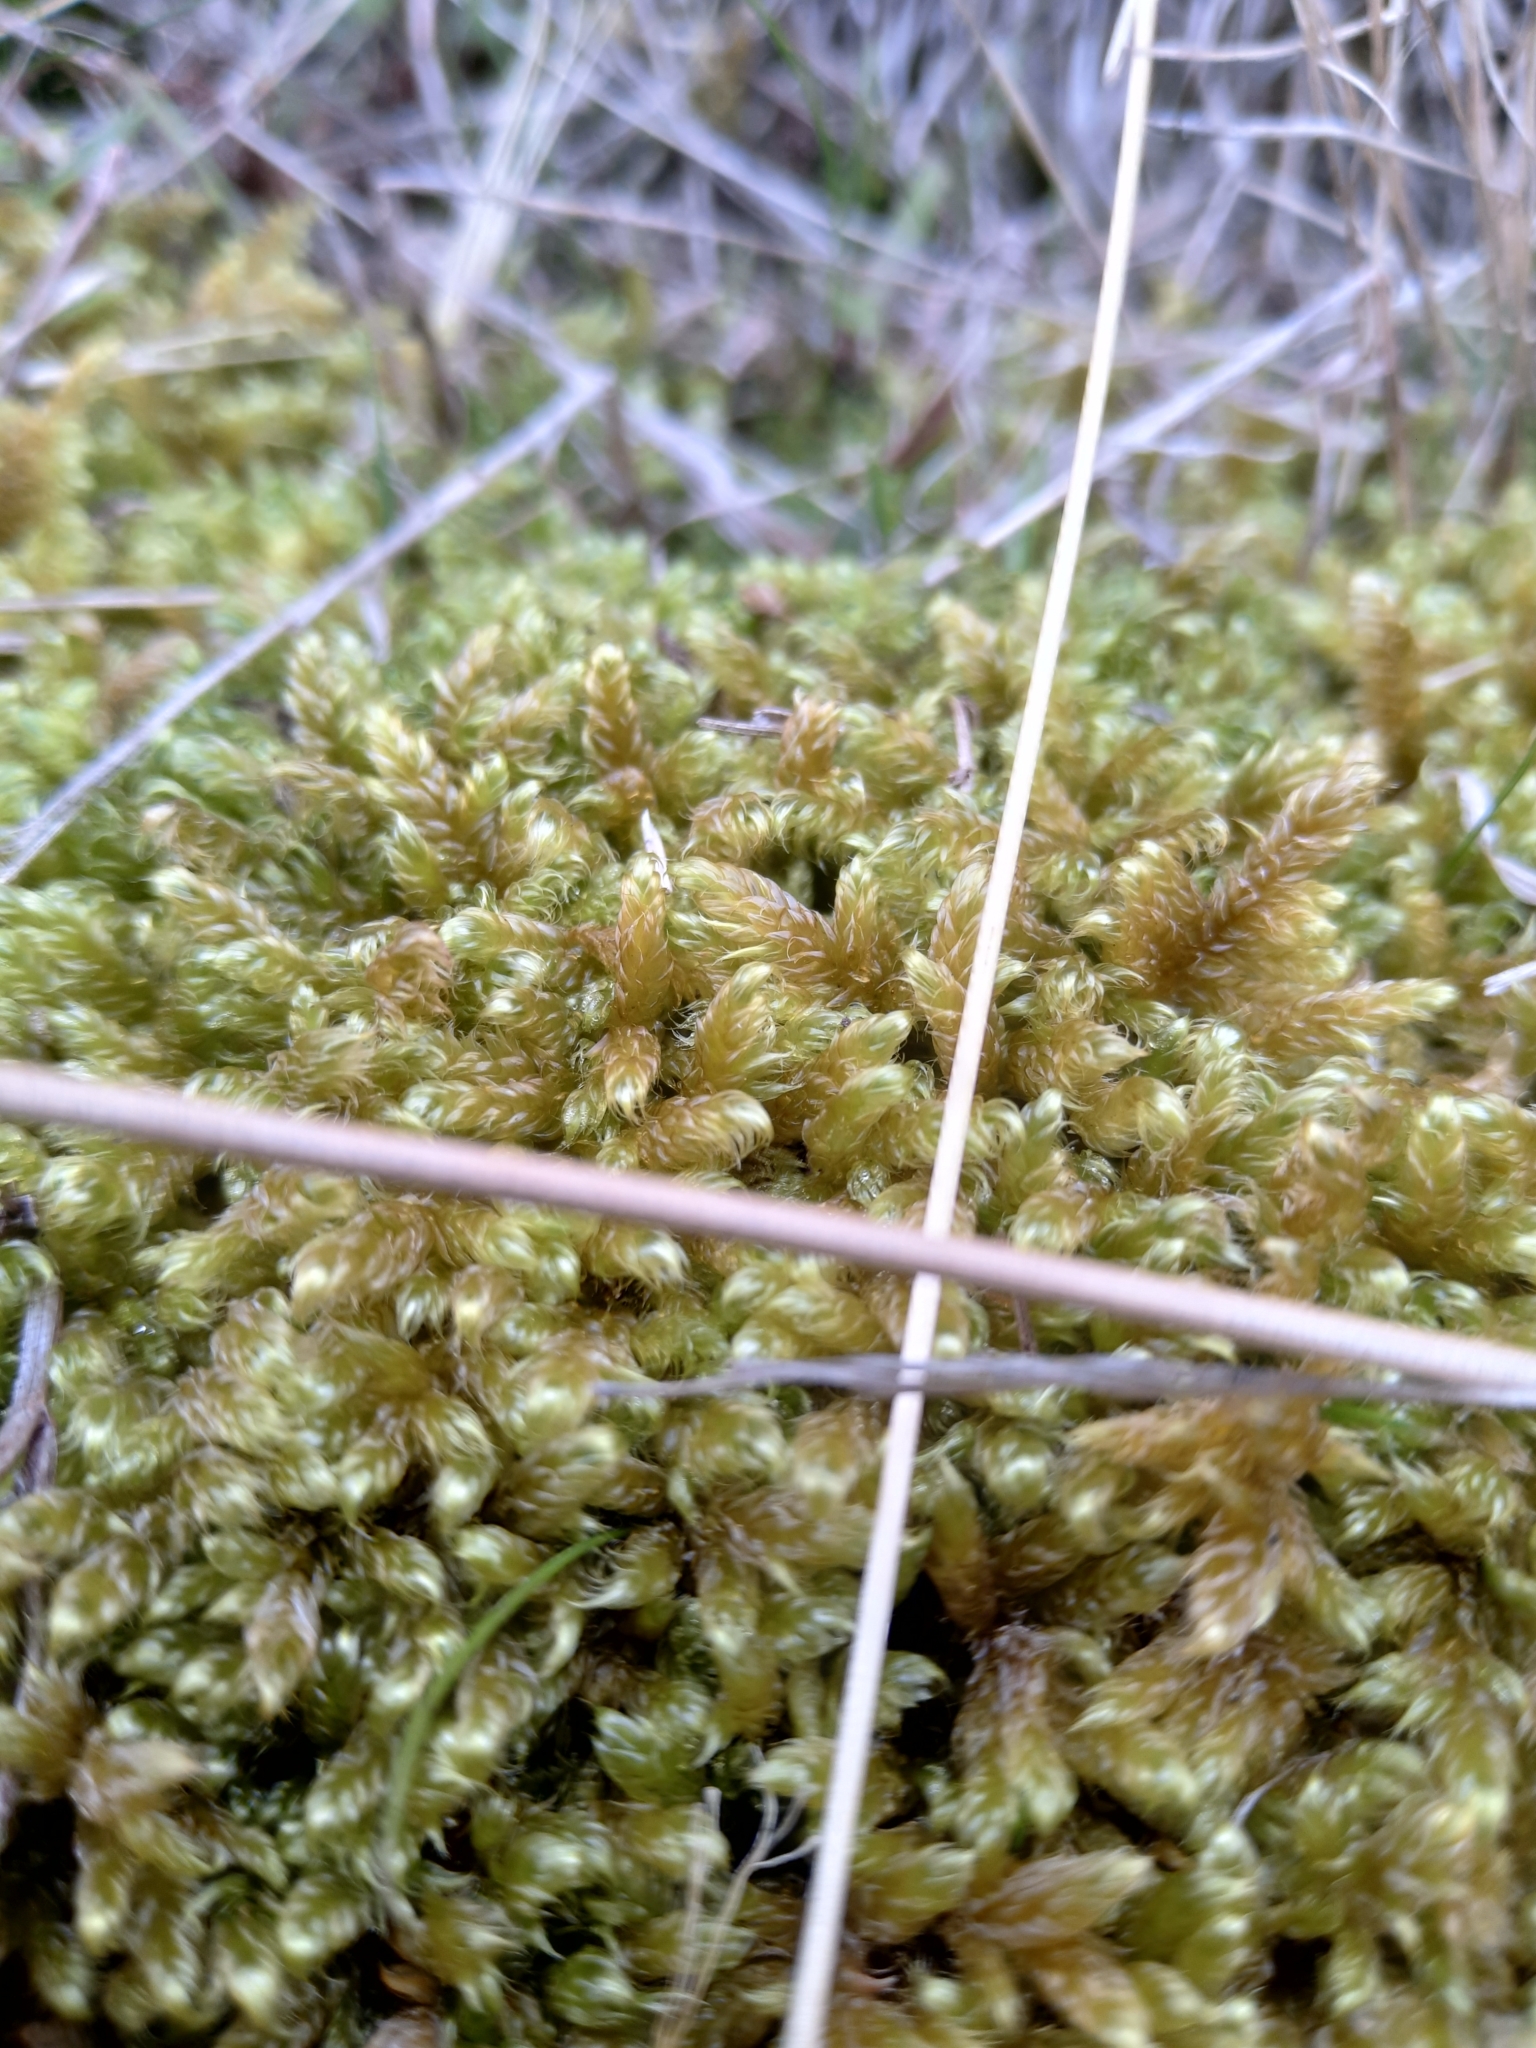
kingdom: Plantae
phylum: Bryophyta
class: Bryopsida
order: Hypnales
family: Hypnaceae
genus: Hypnum
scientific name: Hypnum cupressiforme
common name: Cypress-leaved plait-moss
